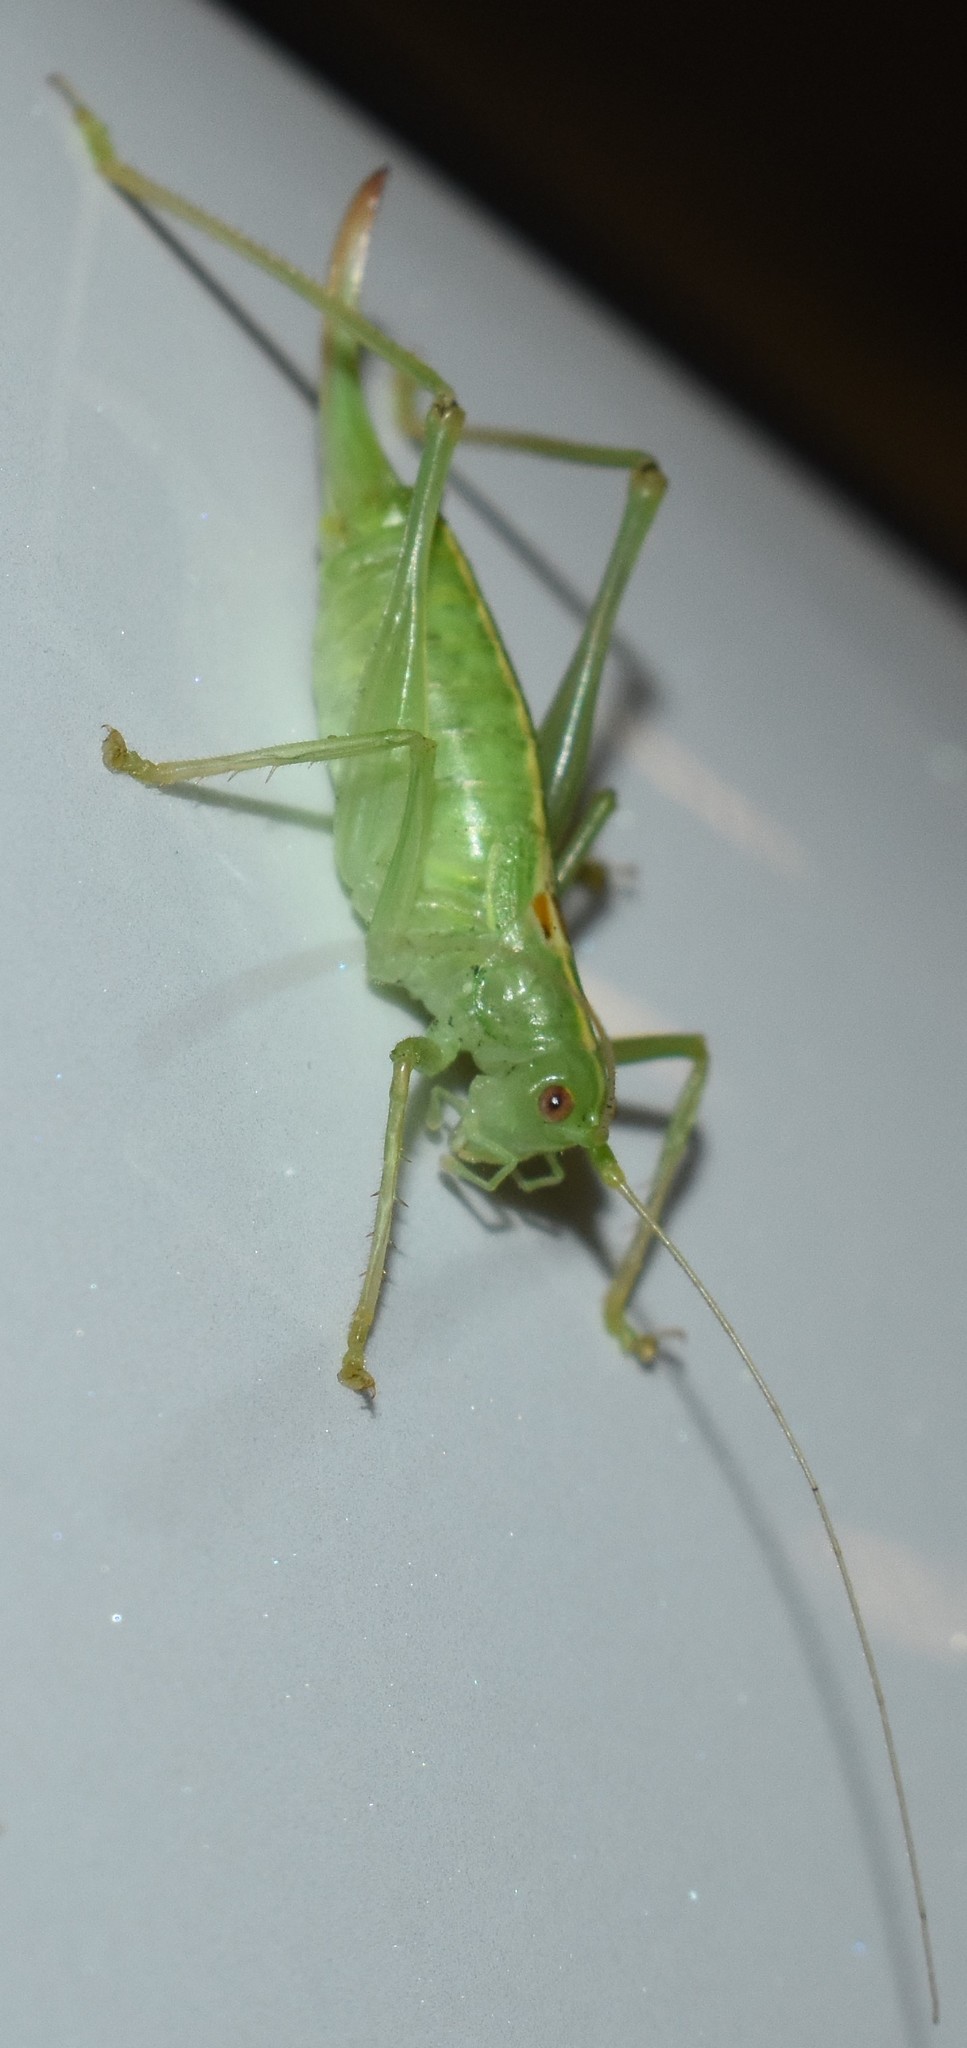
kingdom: Animalia
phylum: Arthropoda
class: Insecta
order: Orthoptera
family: Tettigoniidae
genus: Meconema
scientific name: Meconema meridionale
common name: Southern oak bush-cricket
